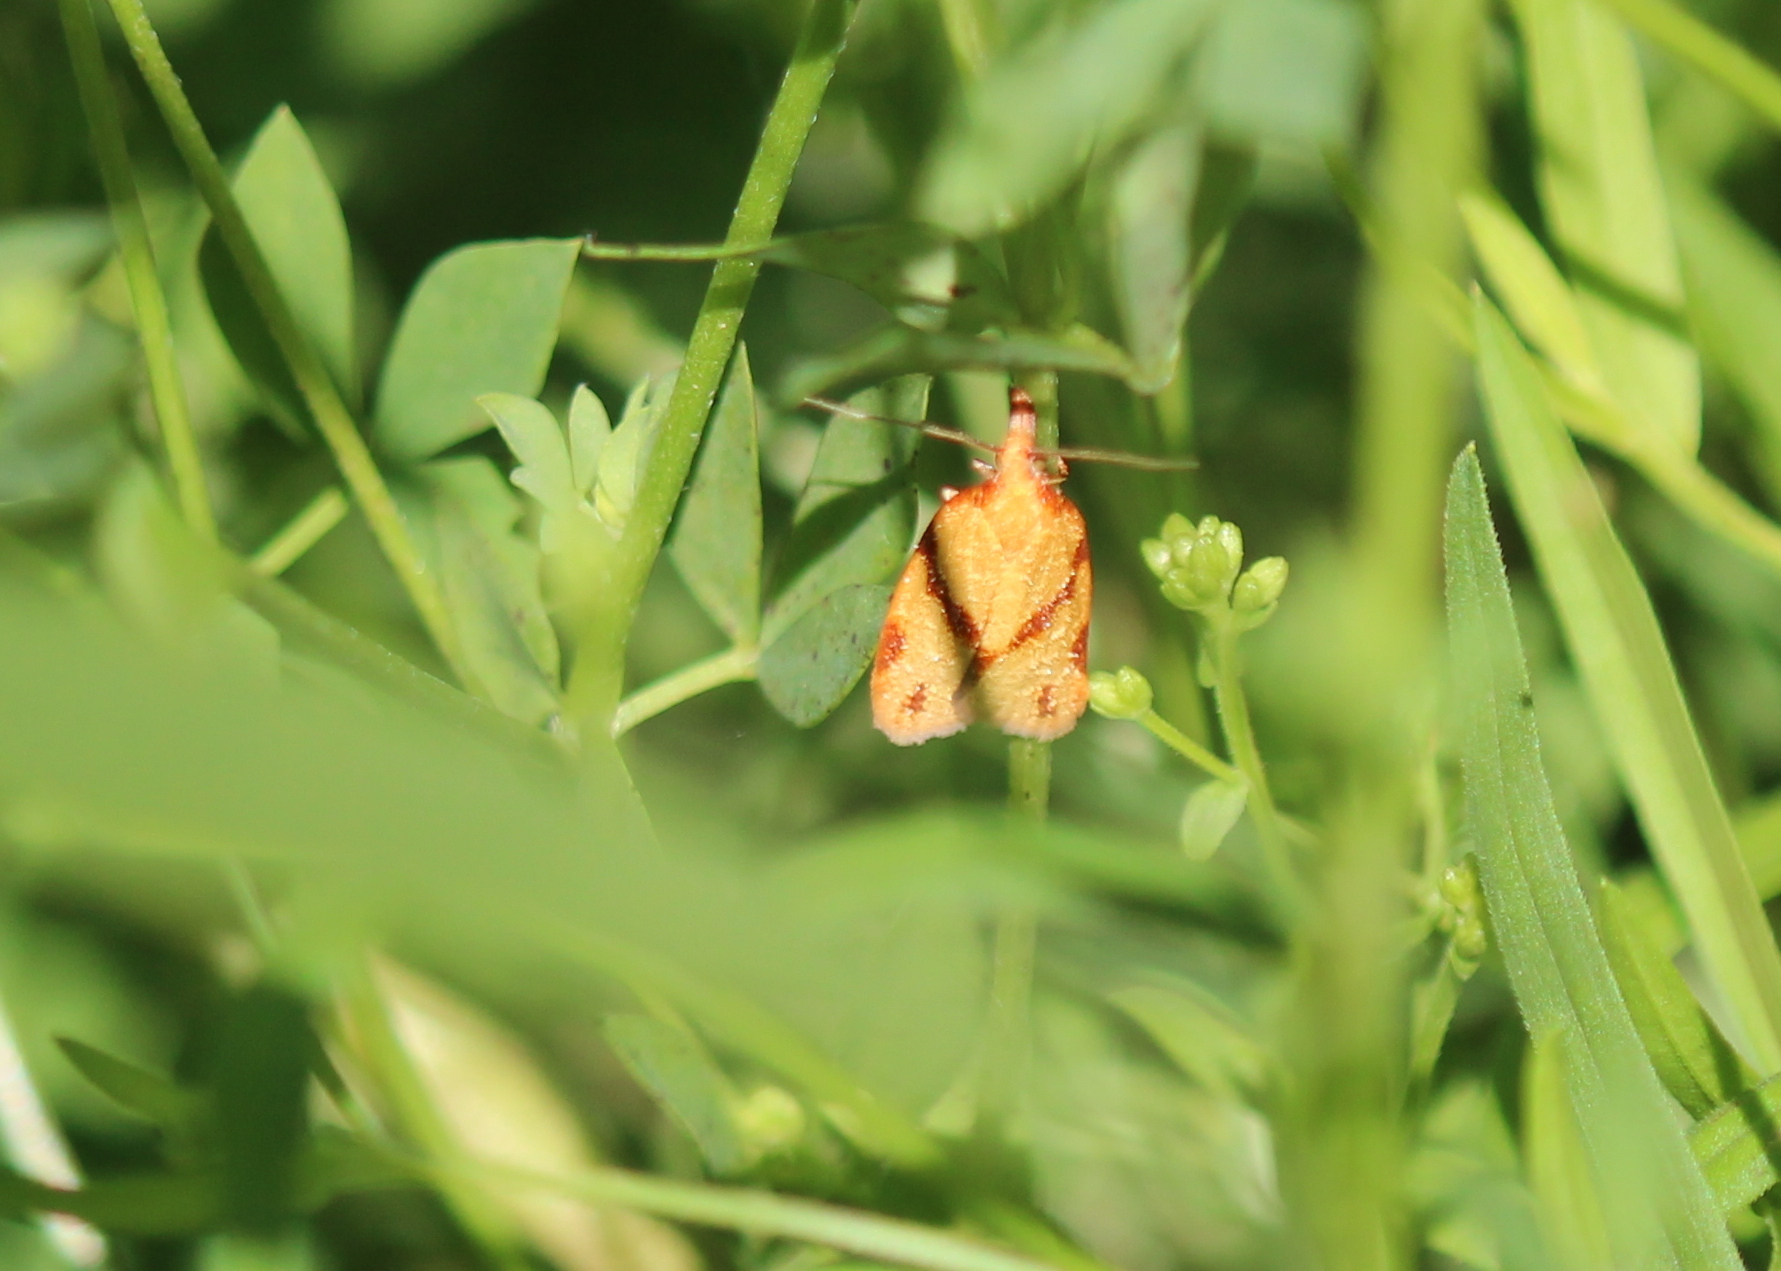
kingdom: Animalia
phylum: Arthropoda
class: Insecta
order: Lepidoptera
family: Tortricidae
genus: Sparganothis
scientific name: Sparganothis unifasciana
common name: One-lined sparganothis moth
